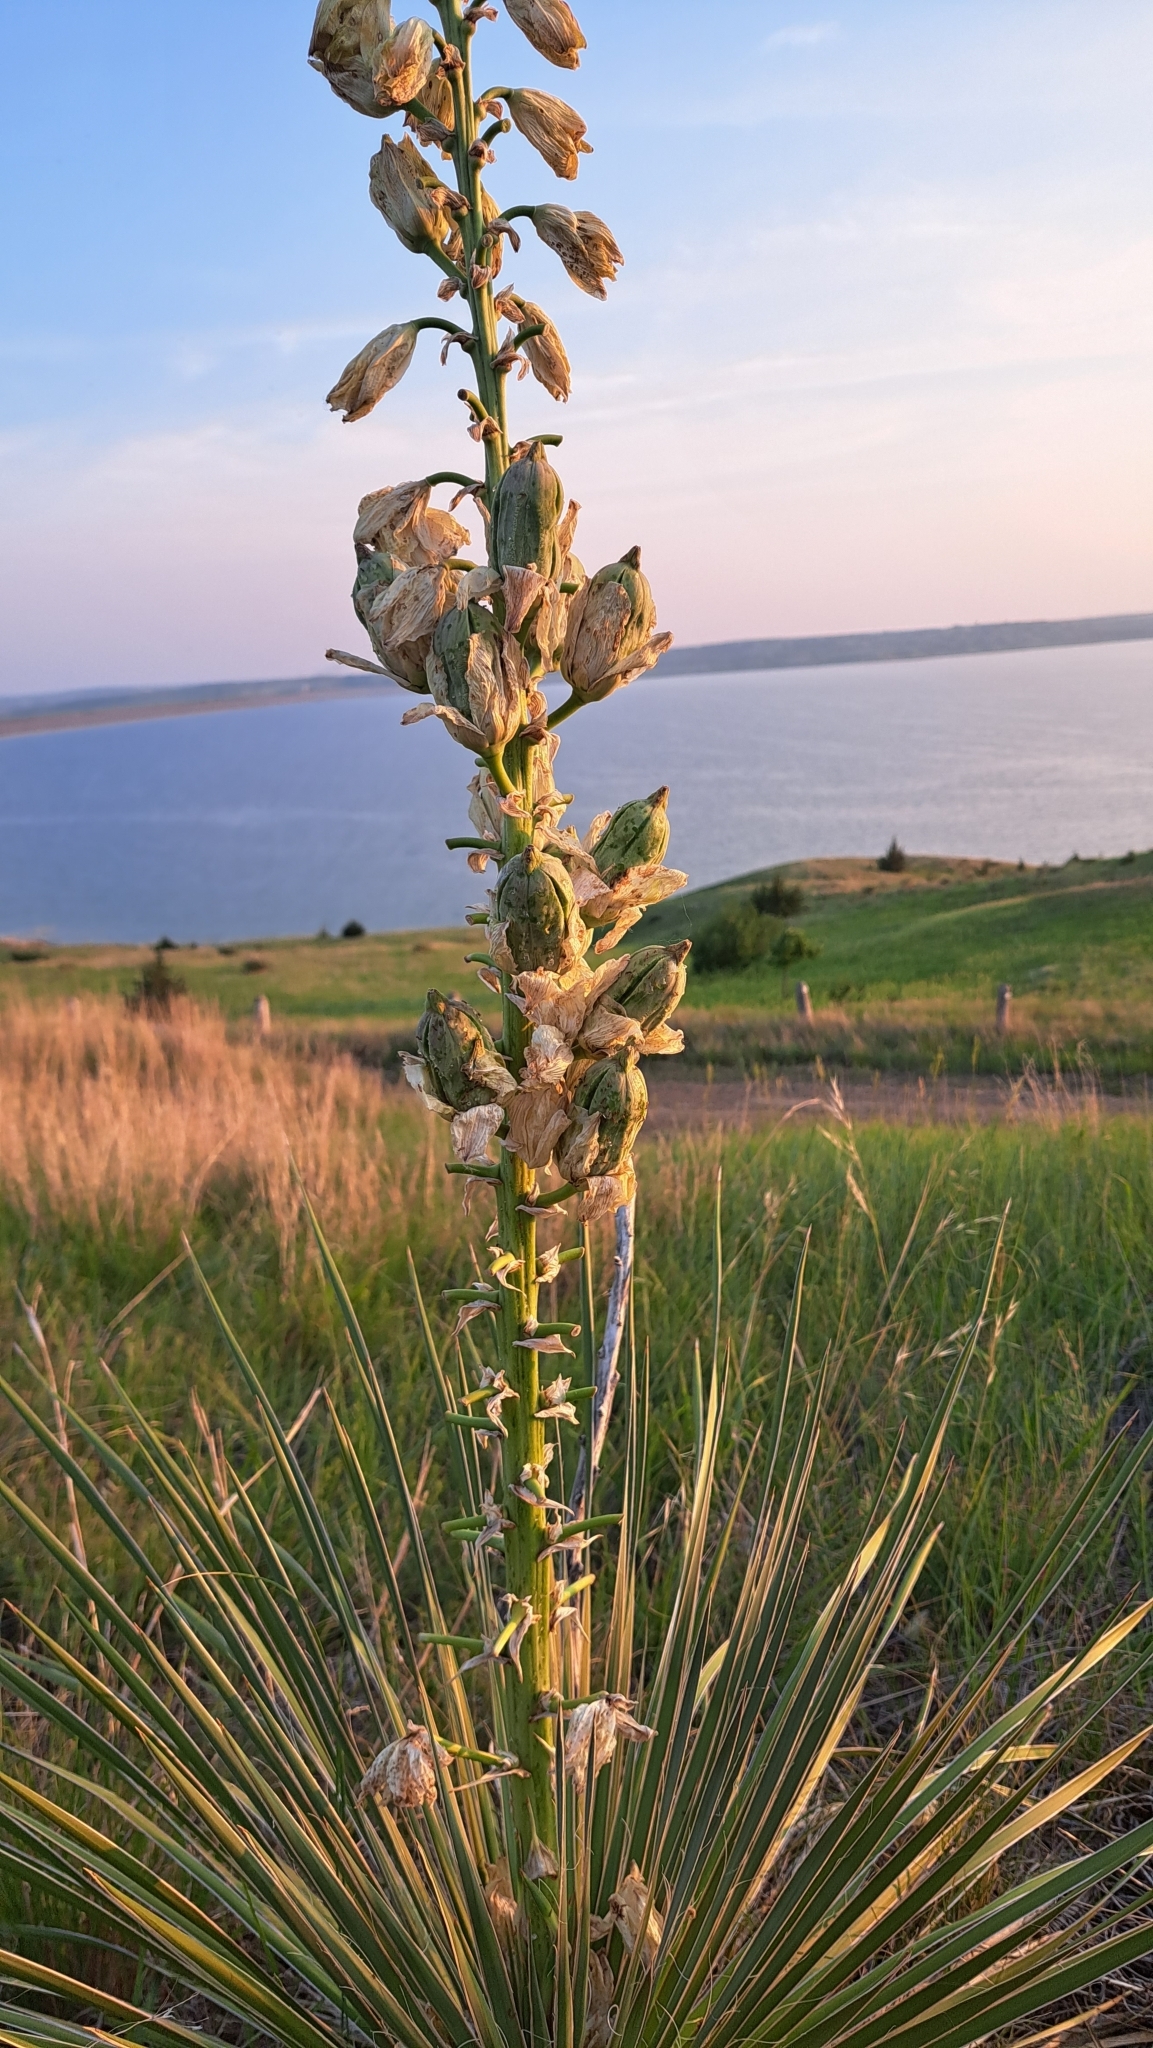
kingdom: Plantae
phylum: Tracheophyta
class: Liliopsida
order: Asparagales
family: Asparagaceae
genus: Yucca
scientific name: Yucca glauca
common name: Great plains yucca
